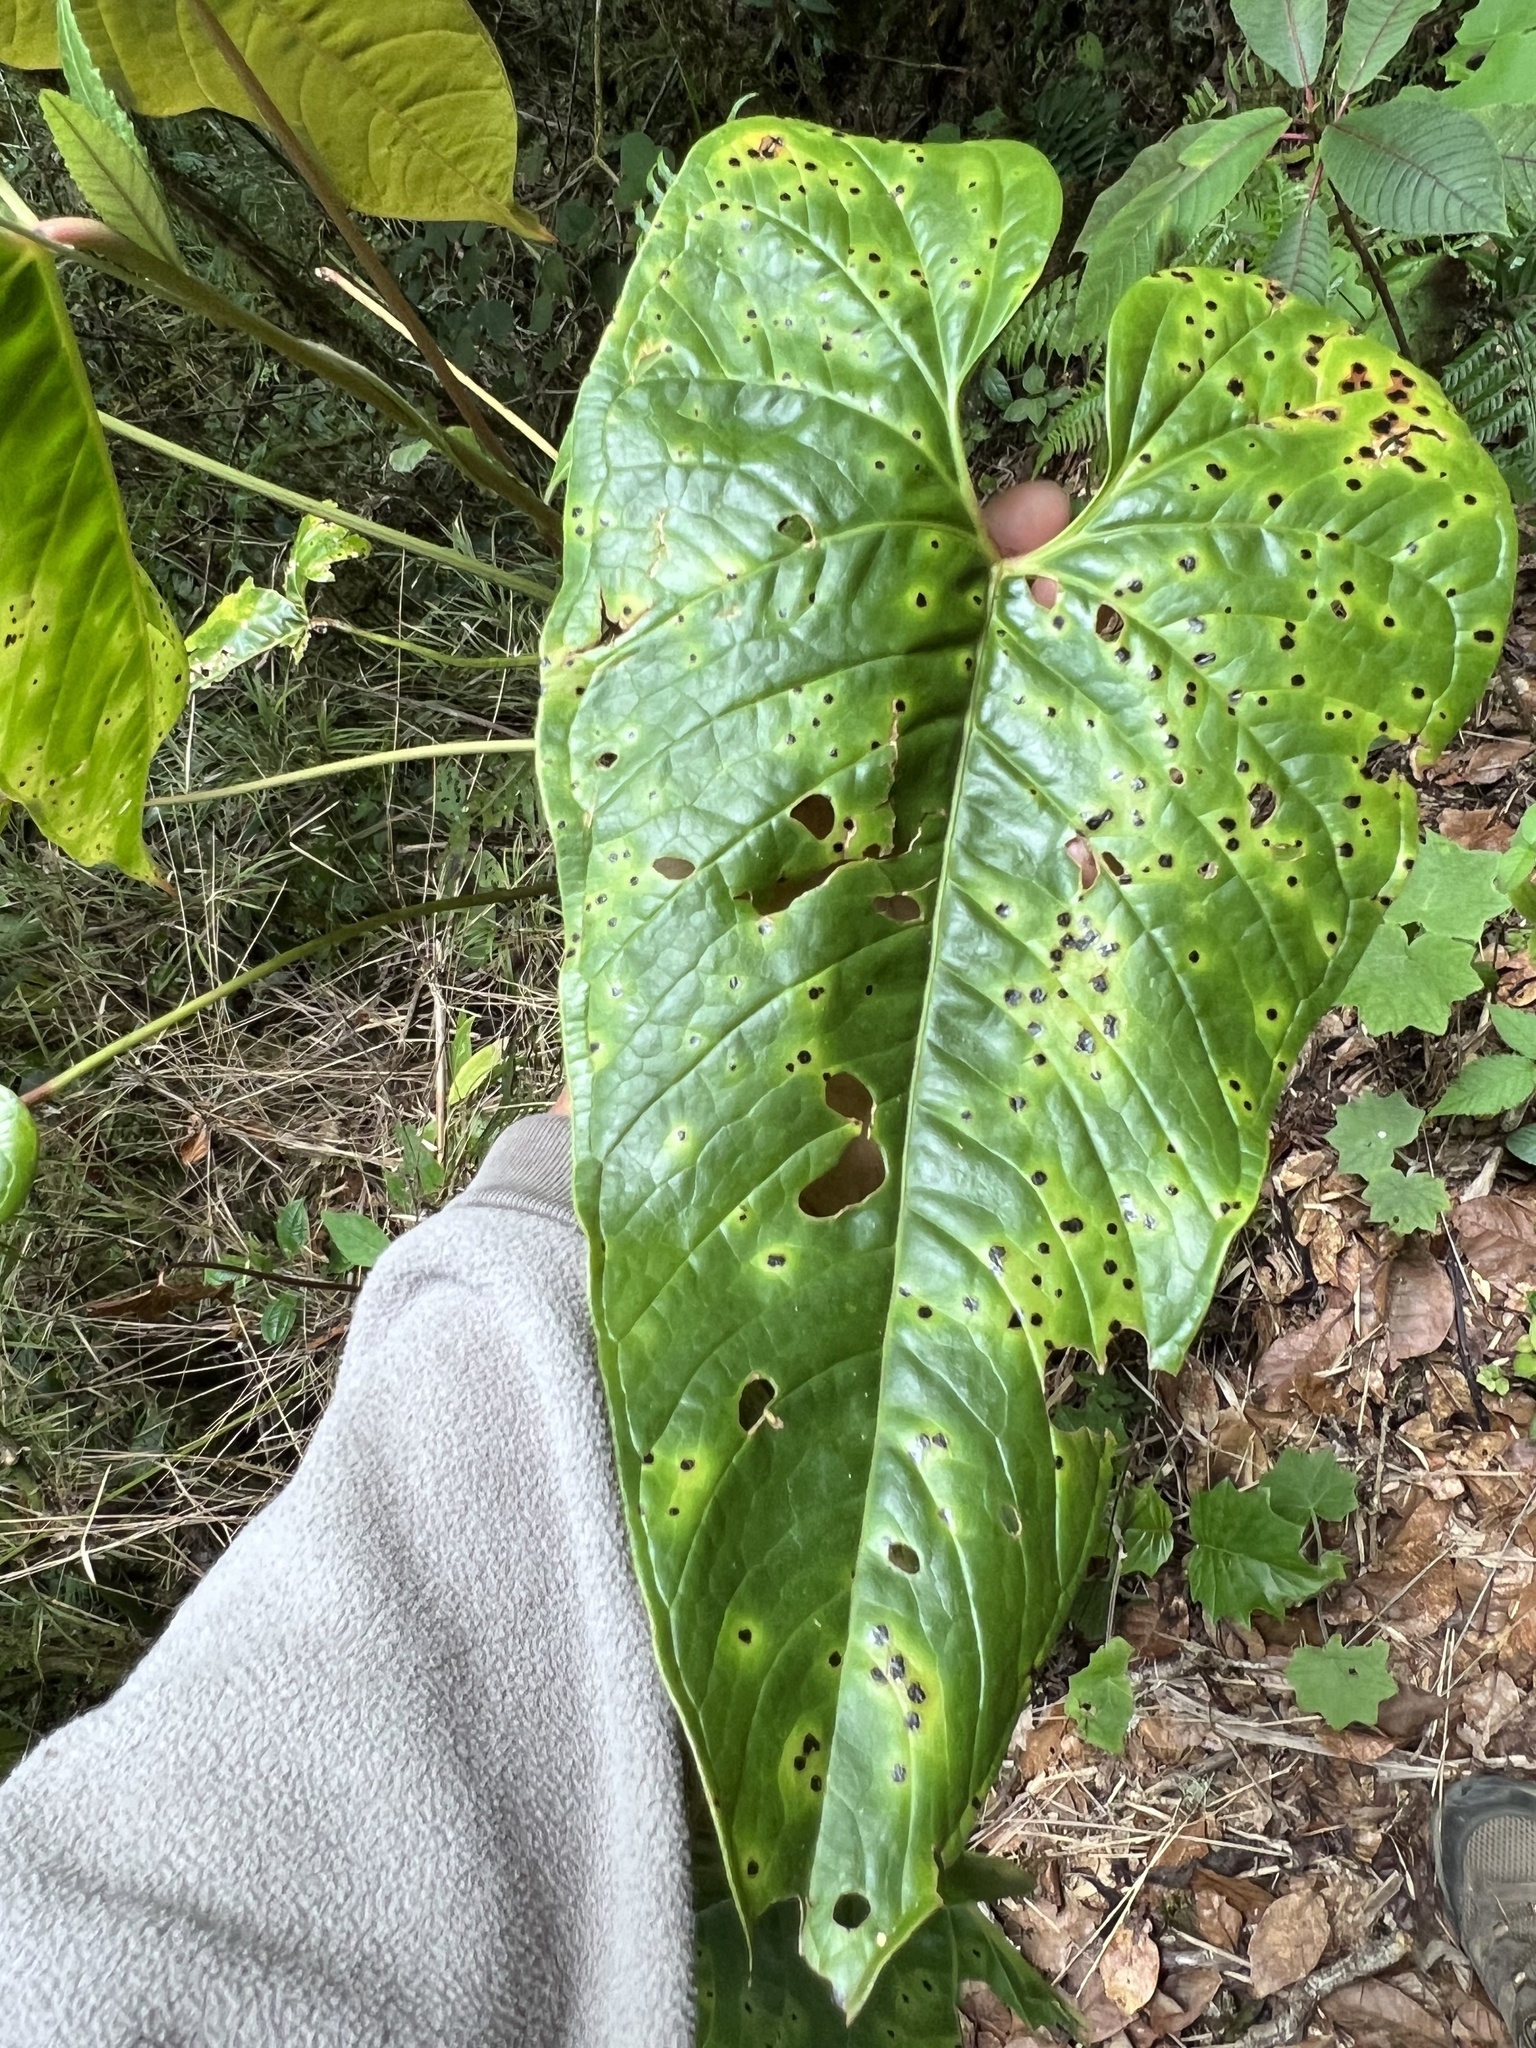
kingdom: Plantae
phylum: Tracheophyta
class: Liliopsida
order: Alismatales
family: Araceae
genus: Anthurium
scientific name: Anthurium concinnatum
